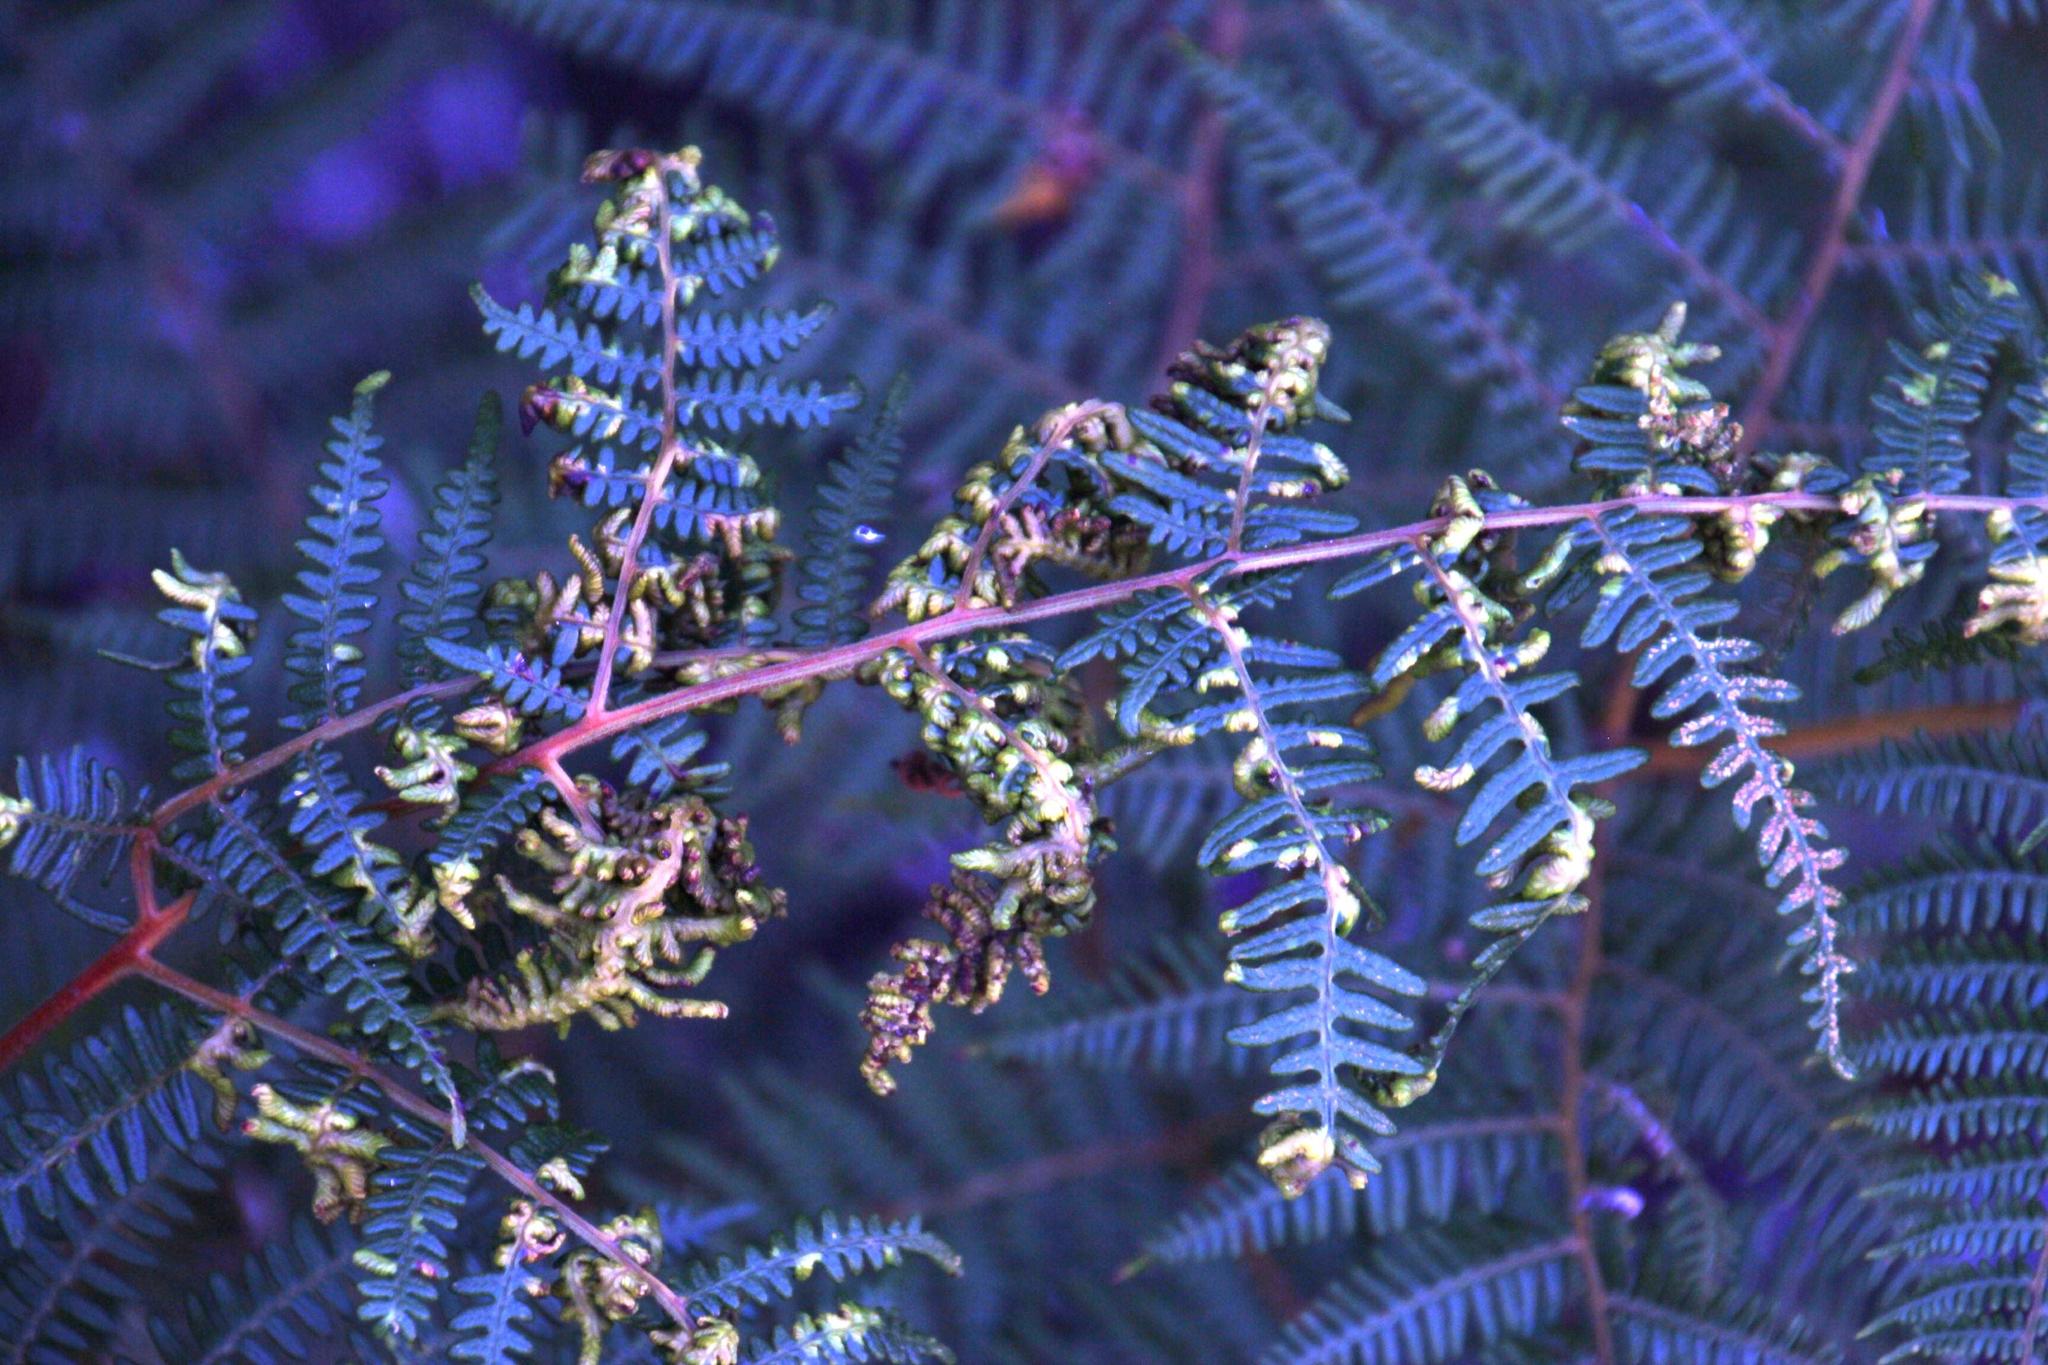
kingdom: Animalia
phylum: Arthropoda
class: Arachnida
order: Trombidiformes
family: Eriophyidae
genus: Eriophyes
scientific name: Eriophyes
